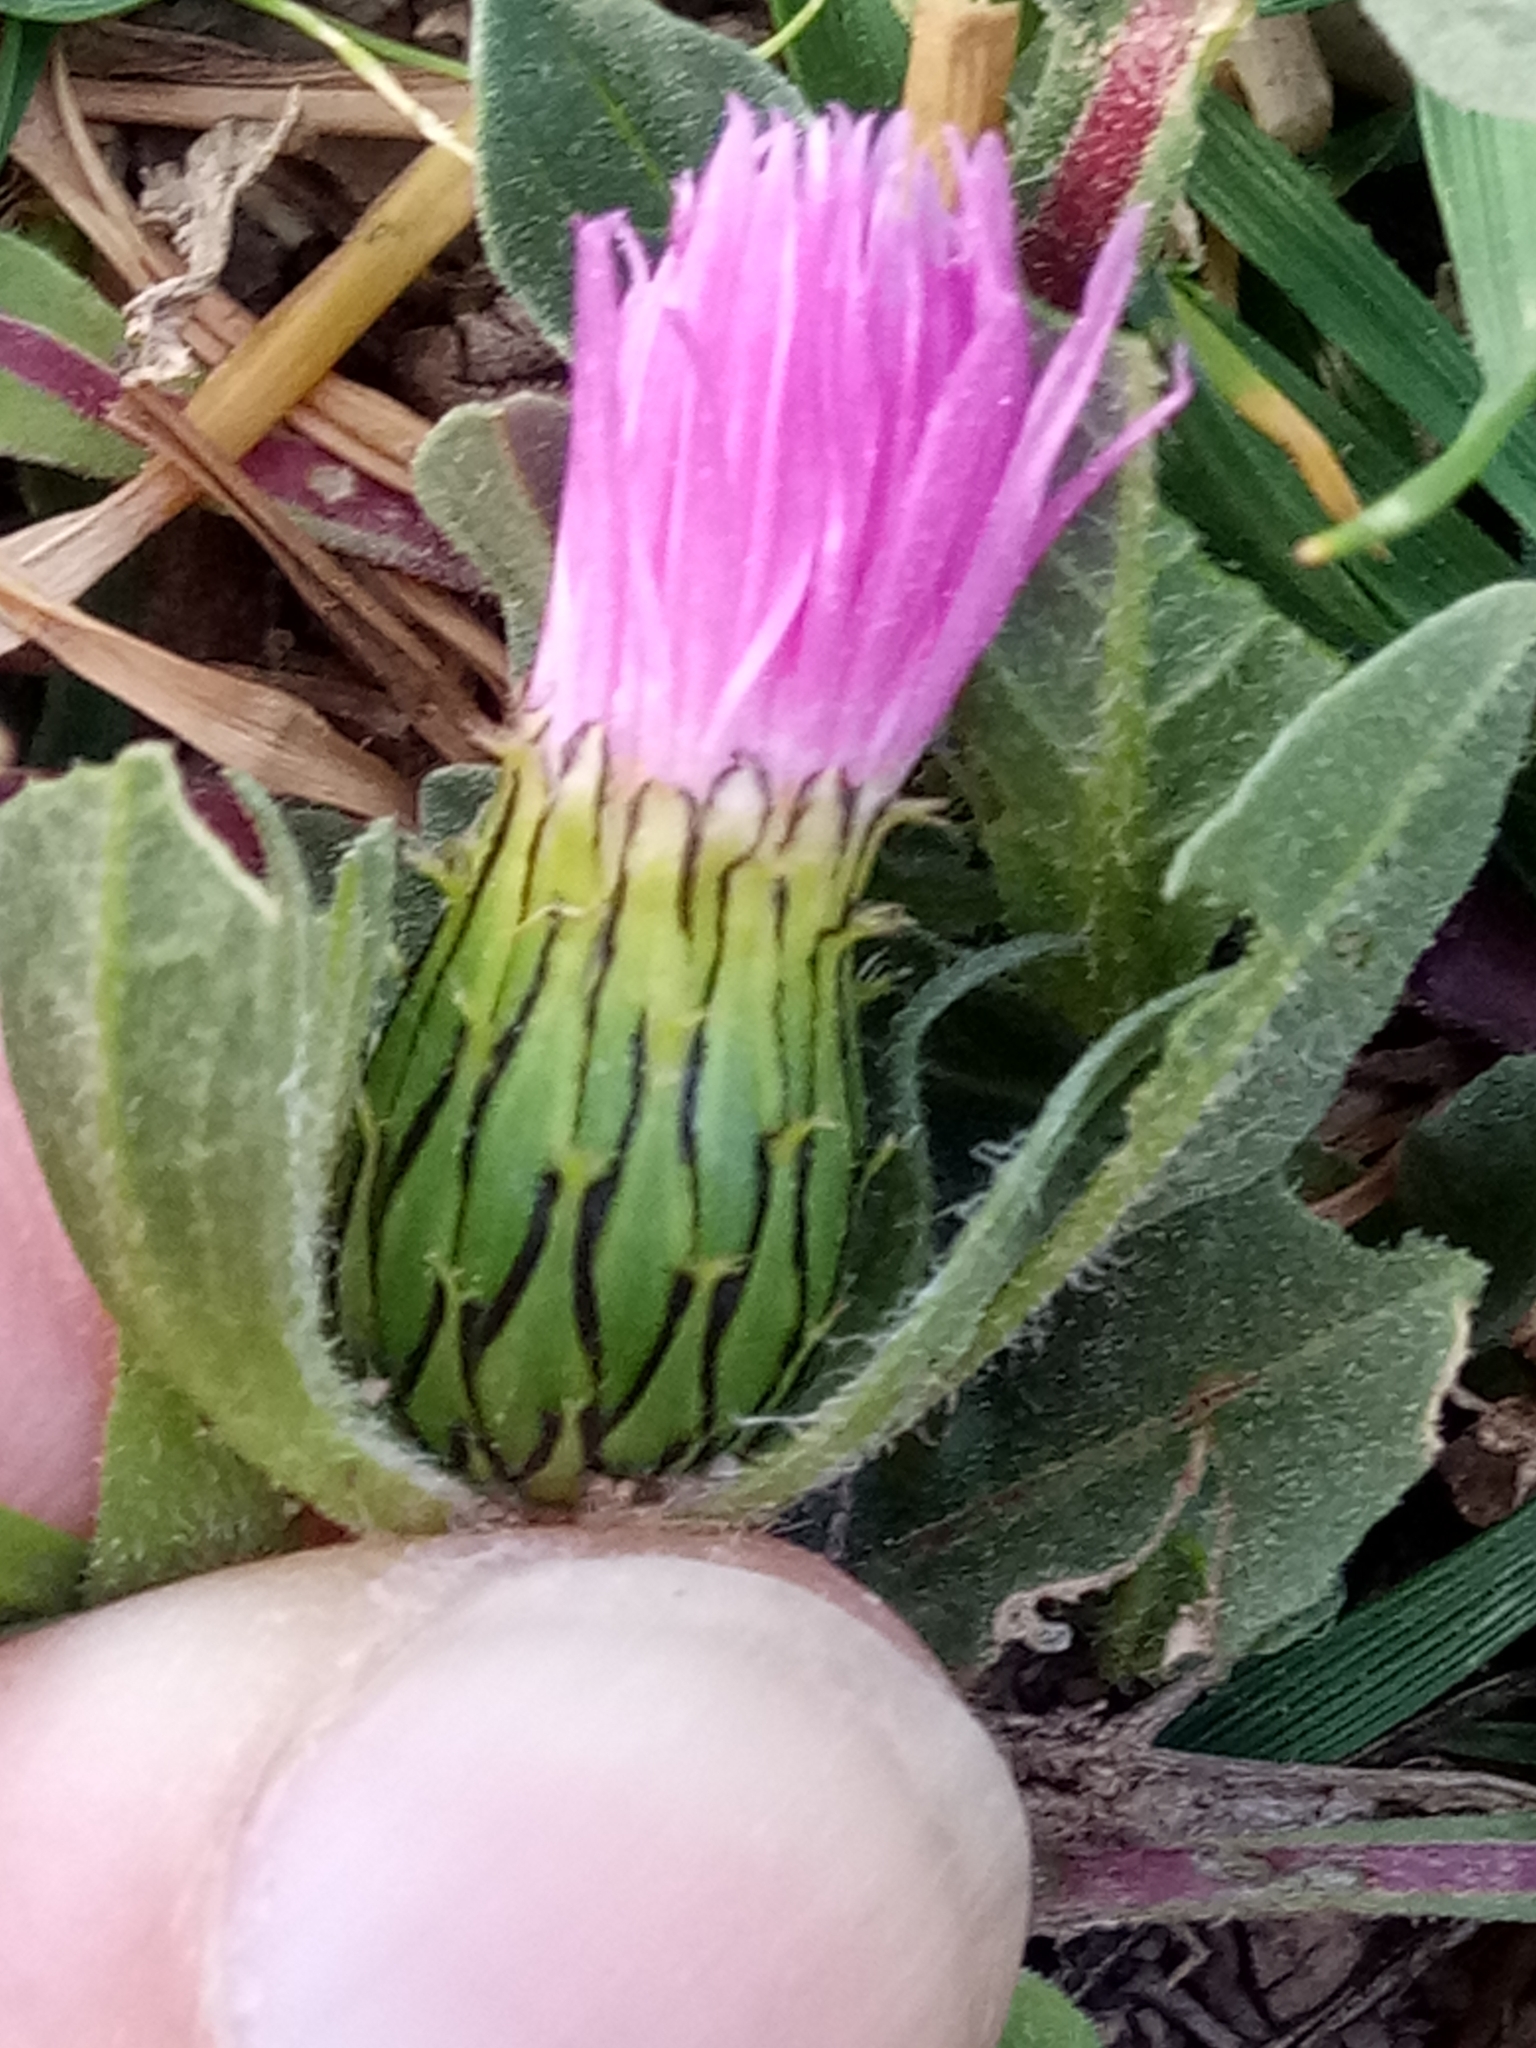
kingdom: Plantae
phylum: Tracheophyta
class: Magnoliopsida
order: Asterales
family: Asteraceae
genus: Centaurea
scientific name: Centaurea pullata
